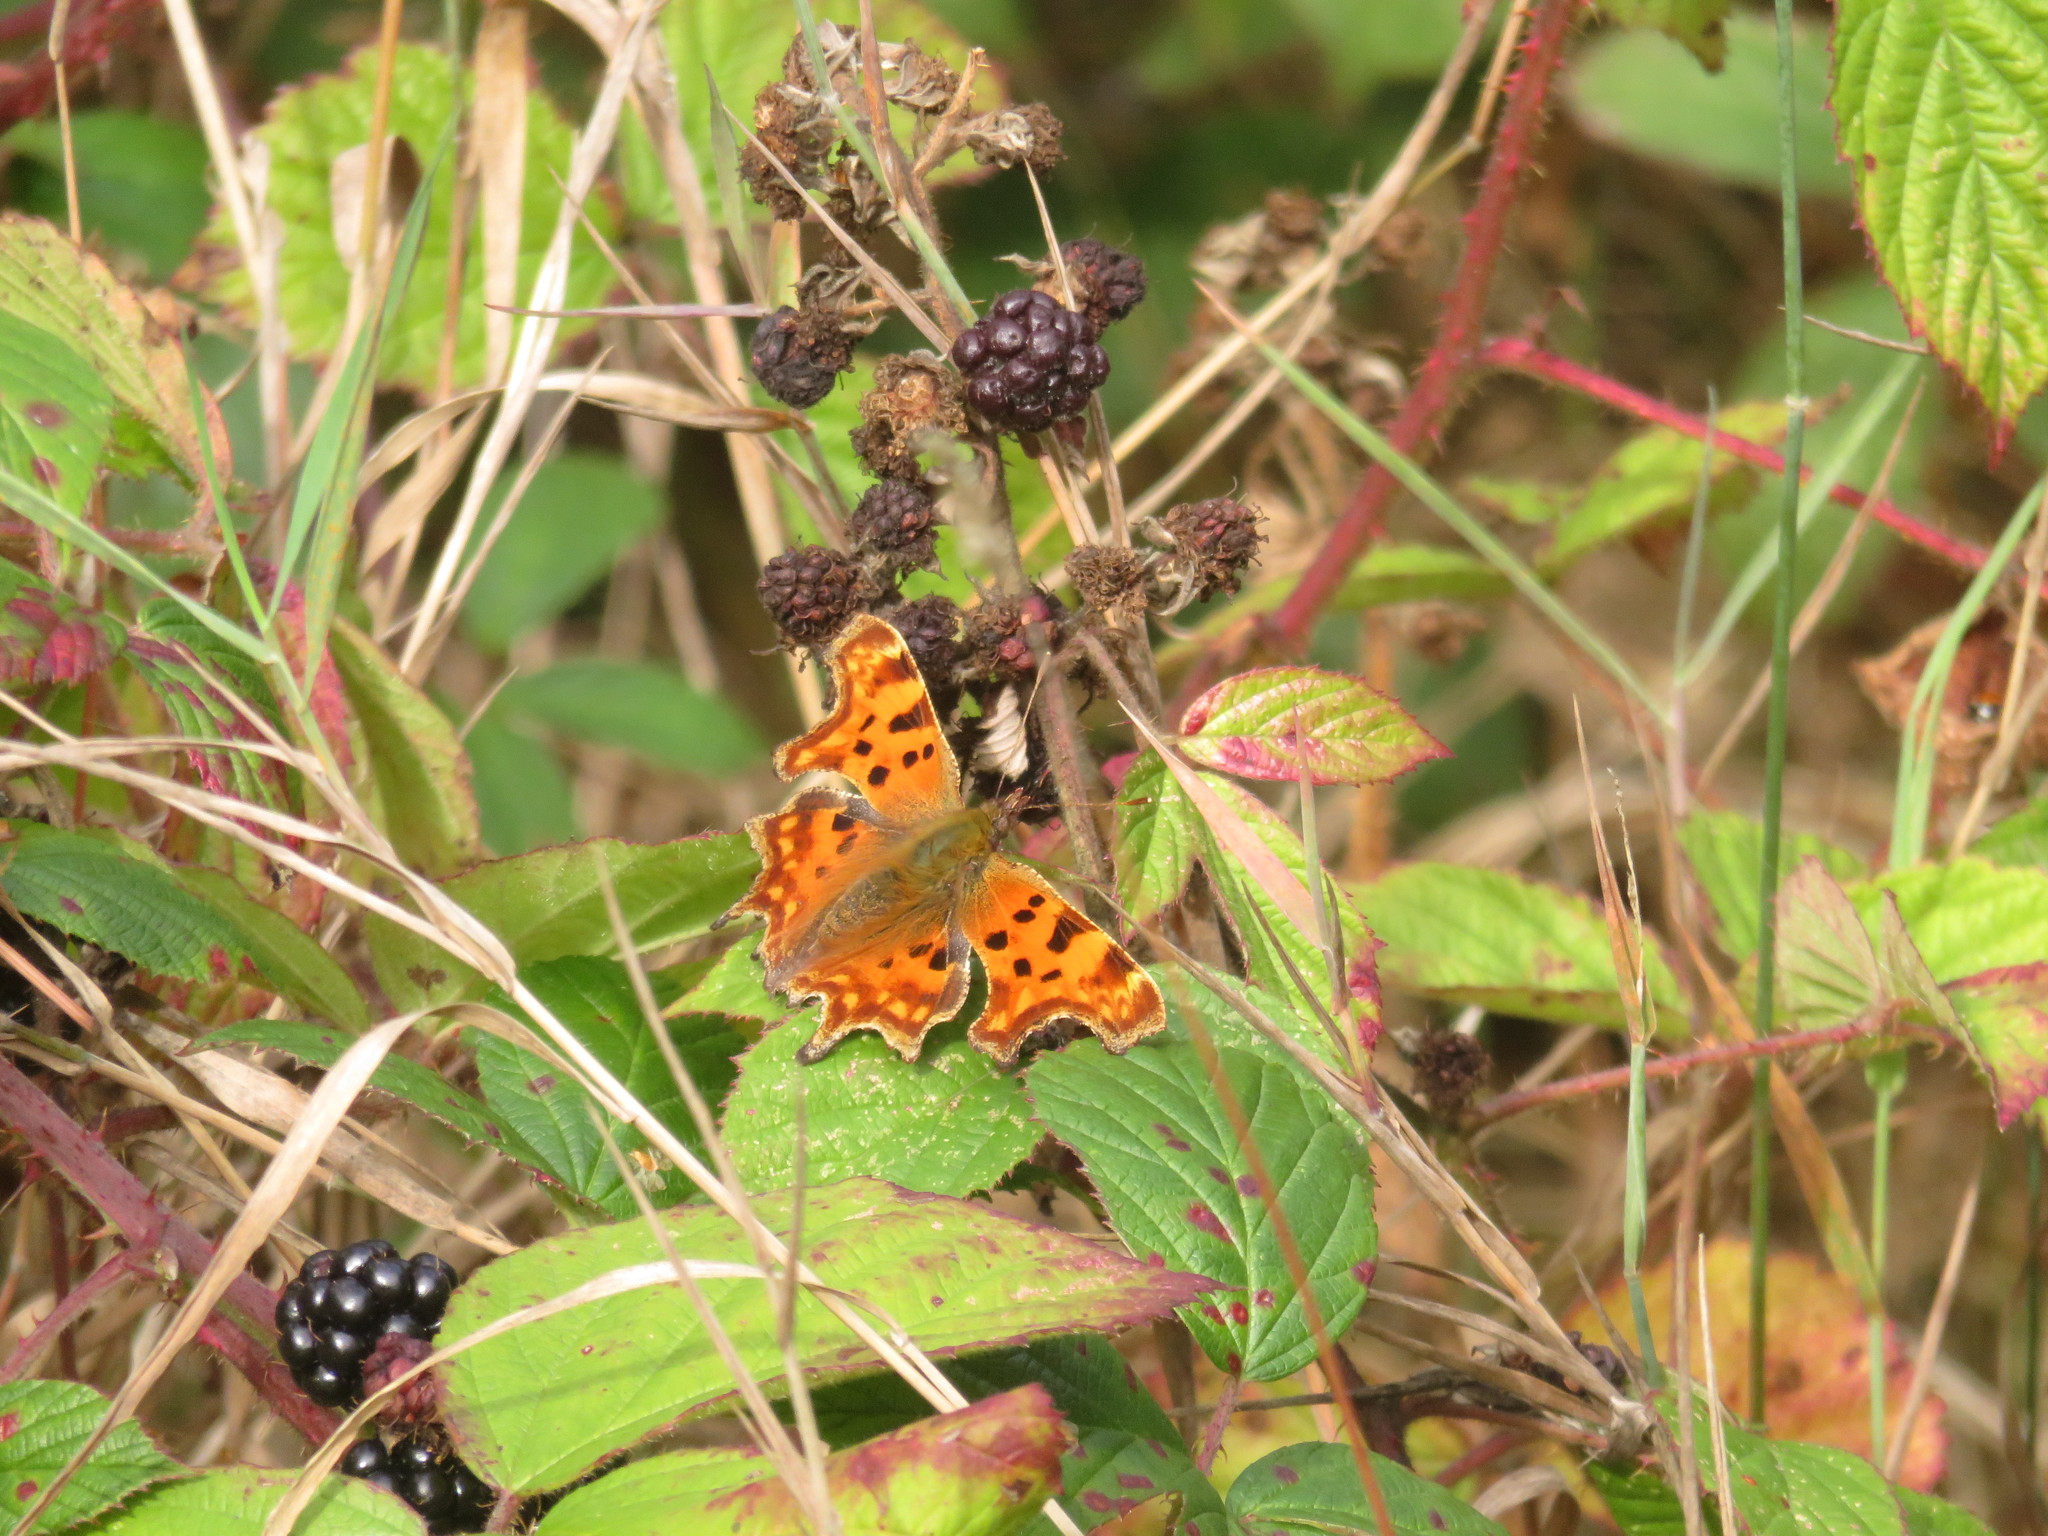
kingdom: Animalia
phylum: Arthropoda
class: Insecta
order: Lepidoptera
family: Nymphalidae
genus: Polygonia
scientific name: Polygonia c-album
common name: Comma
